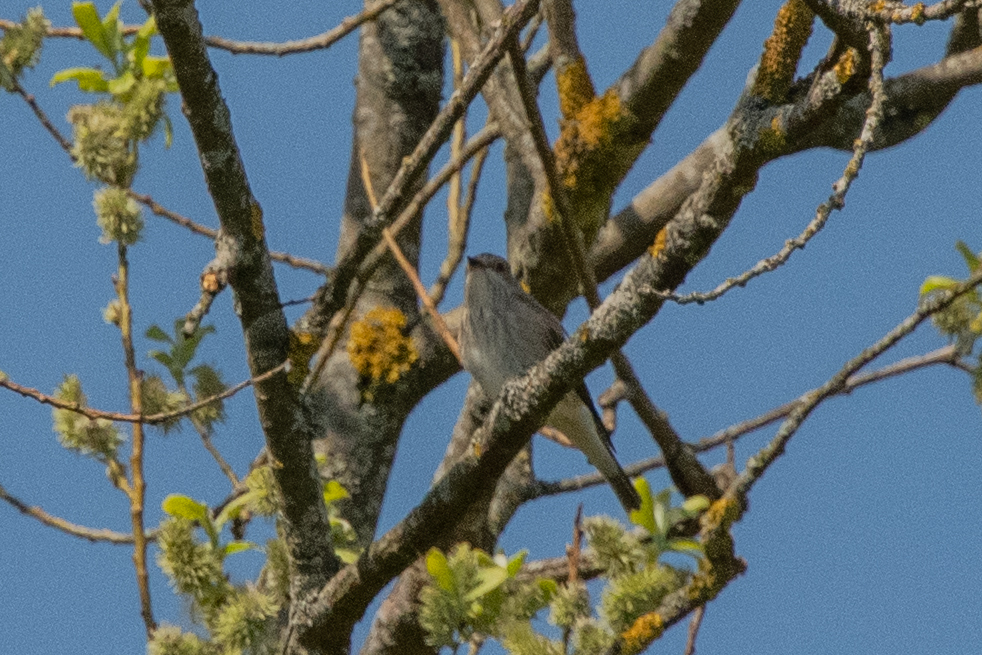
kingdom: Animalia
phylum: Chordata
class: Aves
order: Passeriformes
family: Muscicapidae
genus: Muscicapa
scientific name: Muscicapa striata
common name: Spotted flycatcher
